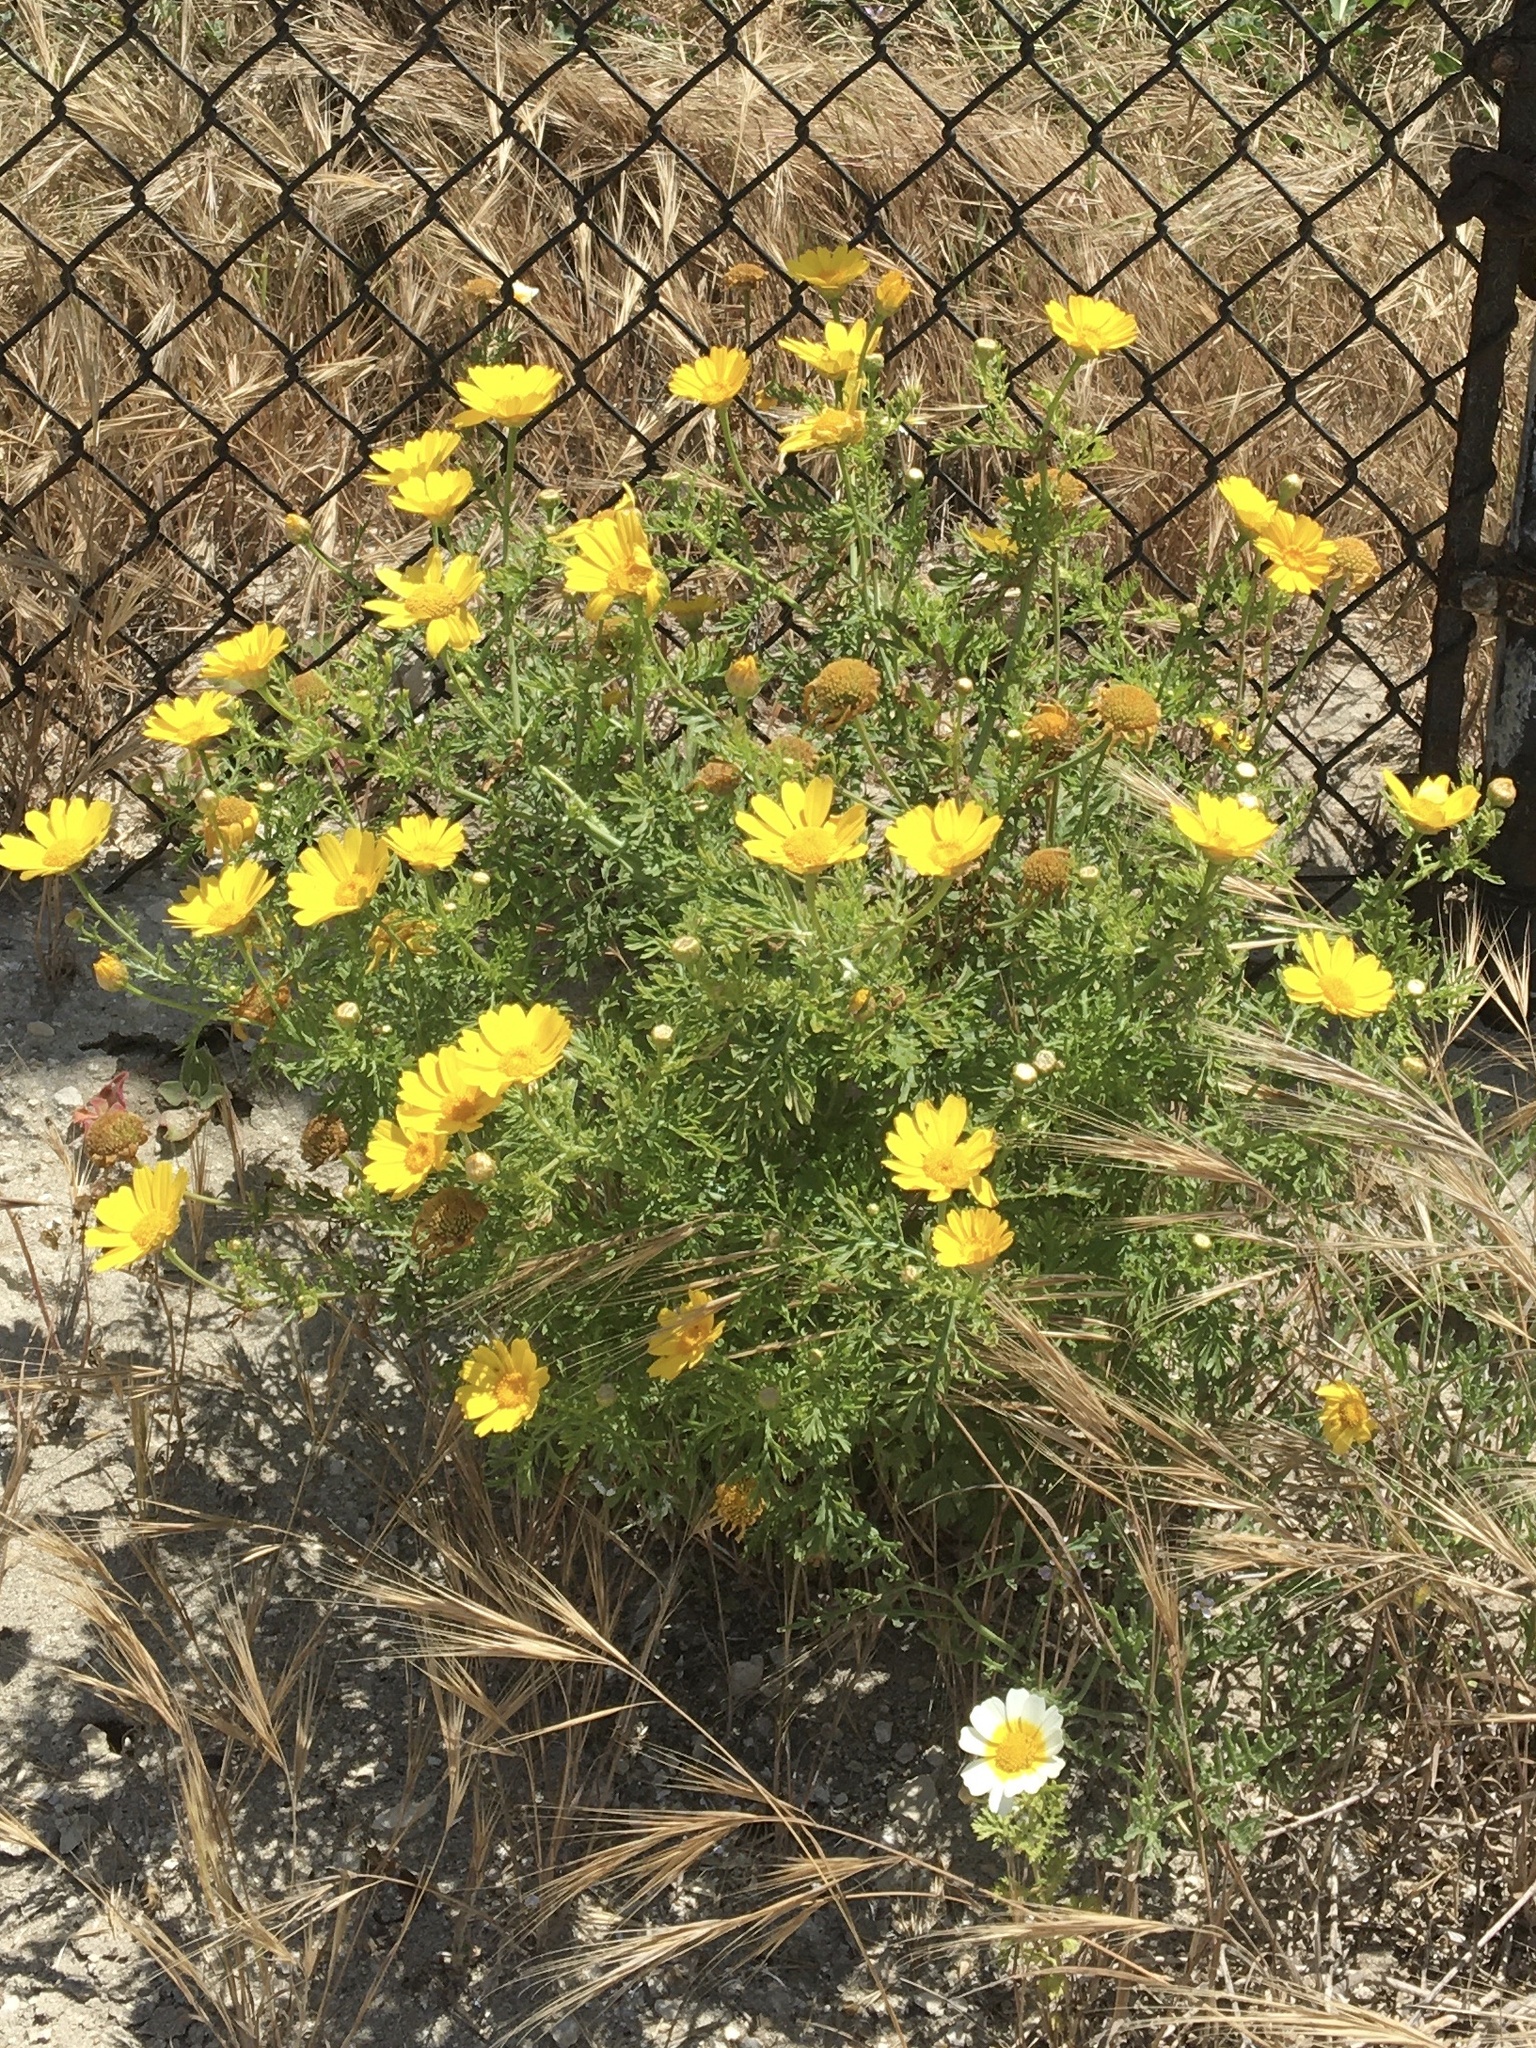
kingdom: Plantae
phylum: Tracheophyta
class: Magnoliopsida
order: Asterales
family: Asteraceae
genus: Glebionis
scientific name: Glebionis coronaria
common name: Crowndaisy
